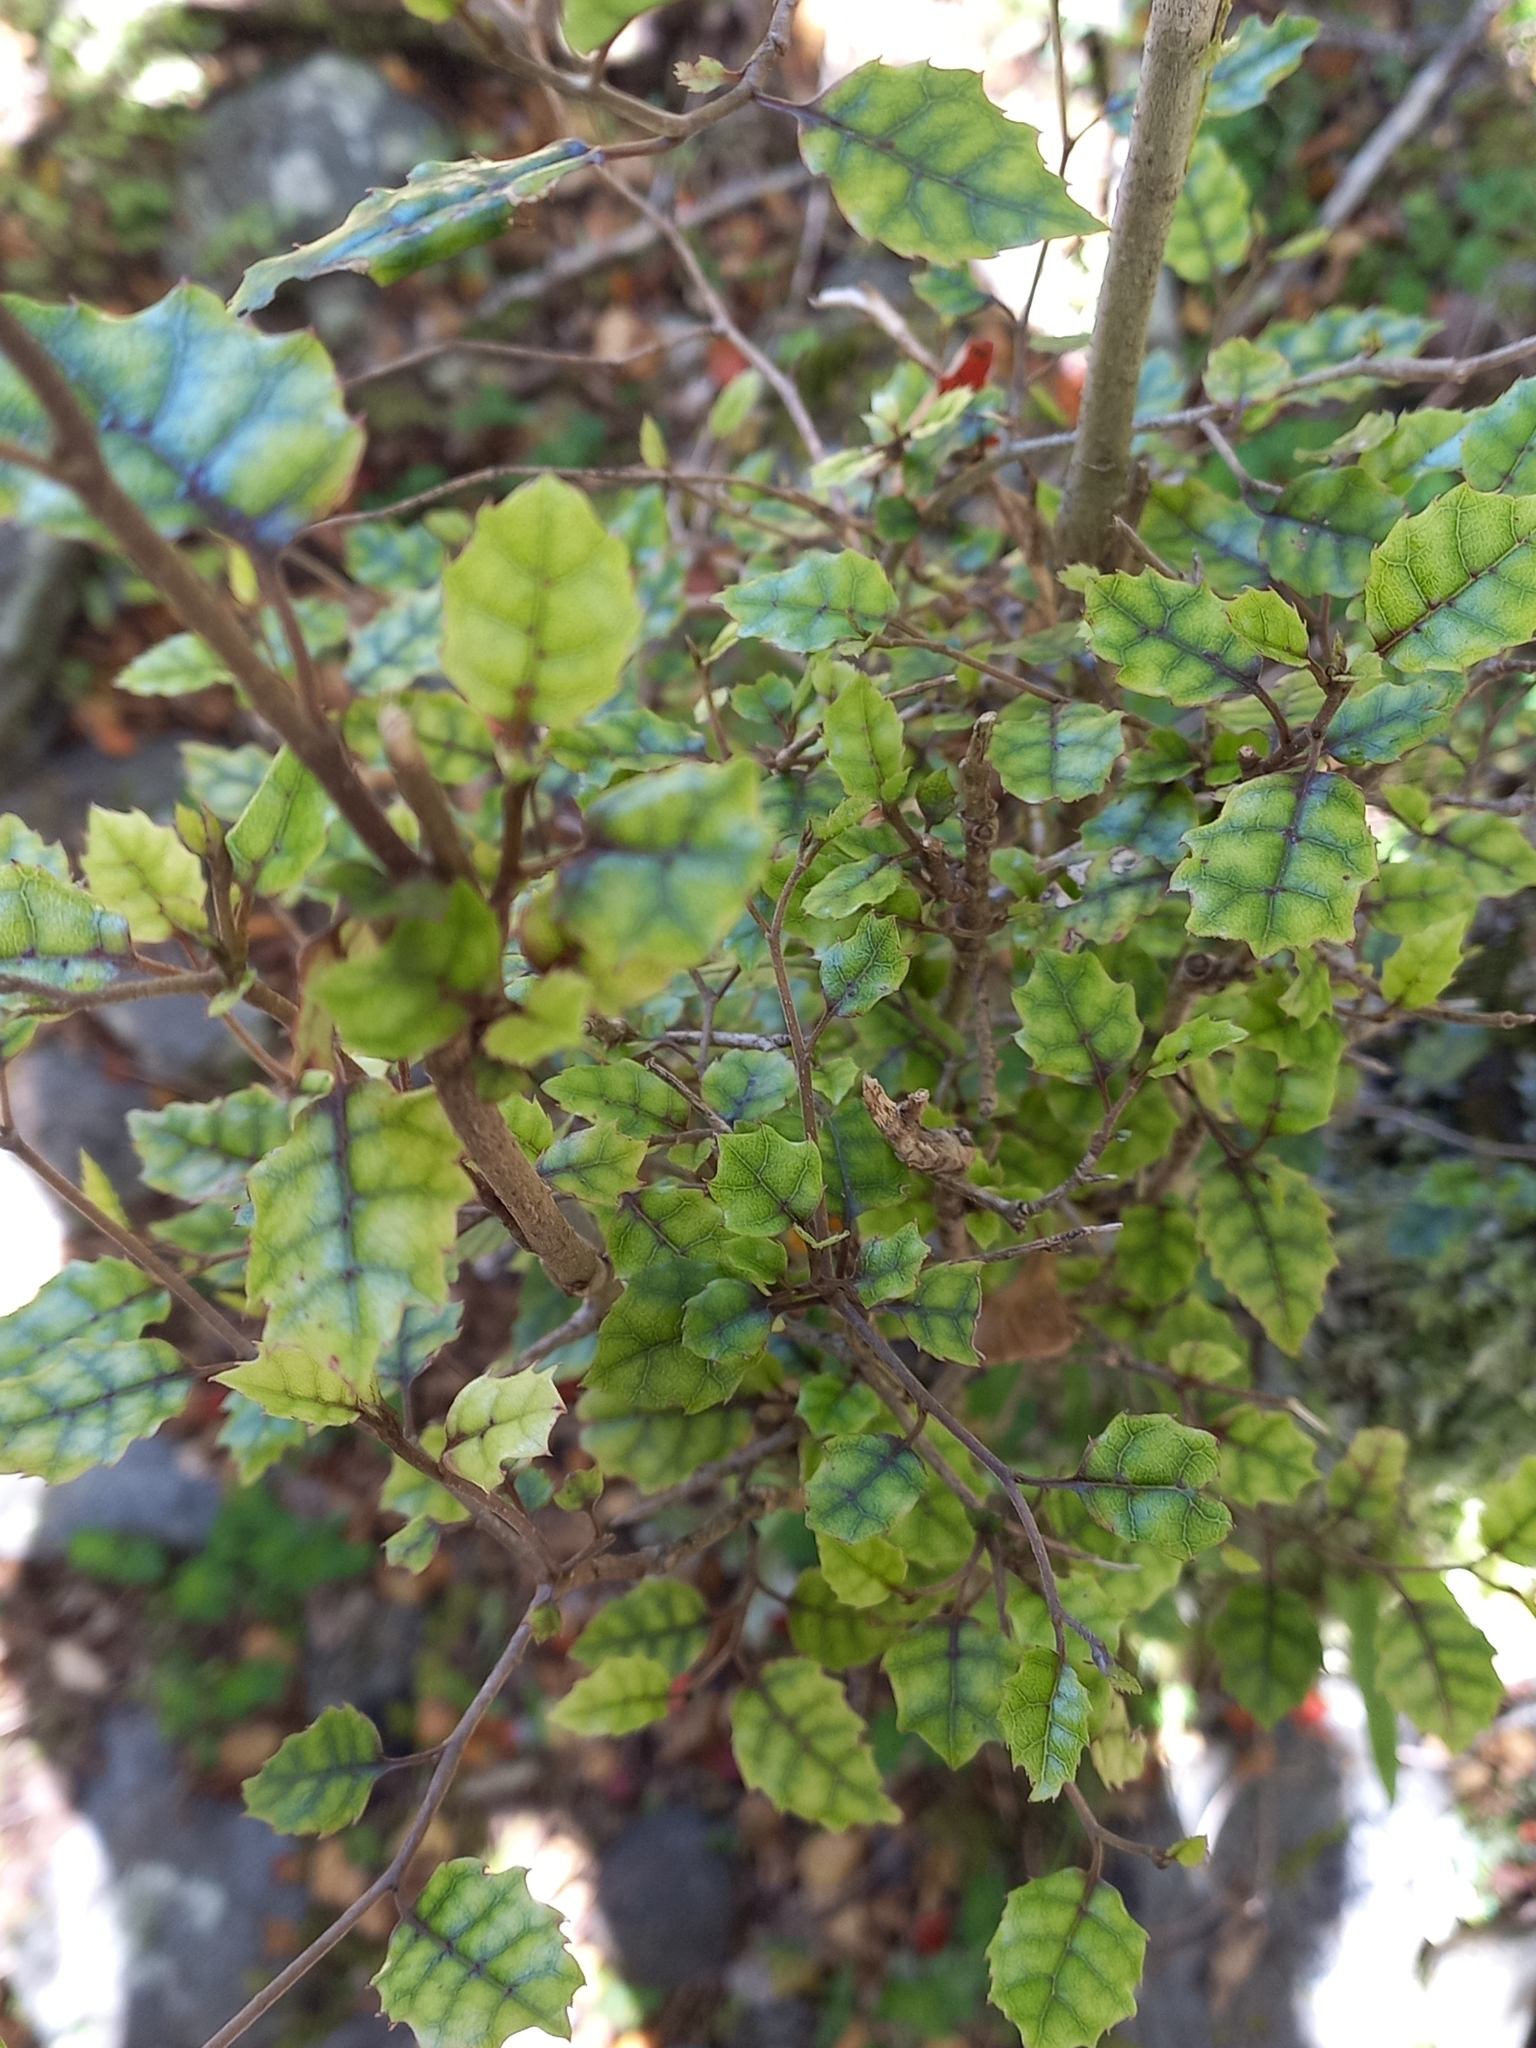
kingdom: Plantae
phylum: Tracheophyta
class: Magnoliopsida
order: Asterales
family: Rousseaceae
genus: Carpodetus
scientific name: Carpodetus serratus
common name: White mapau
